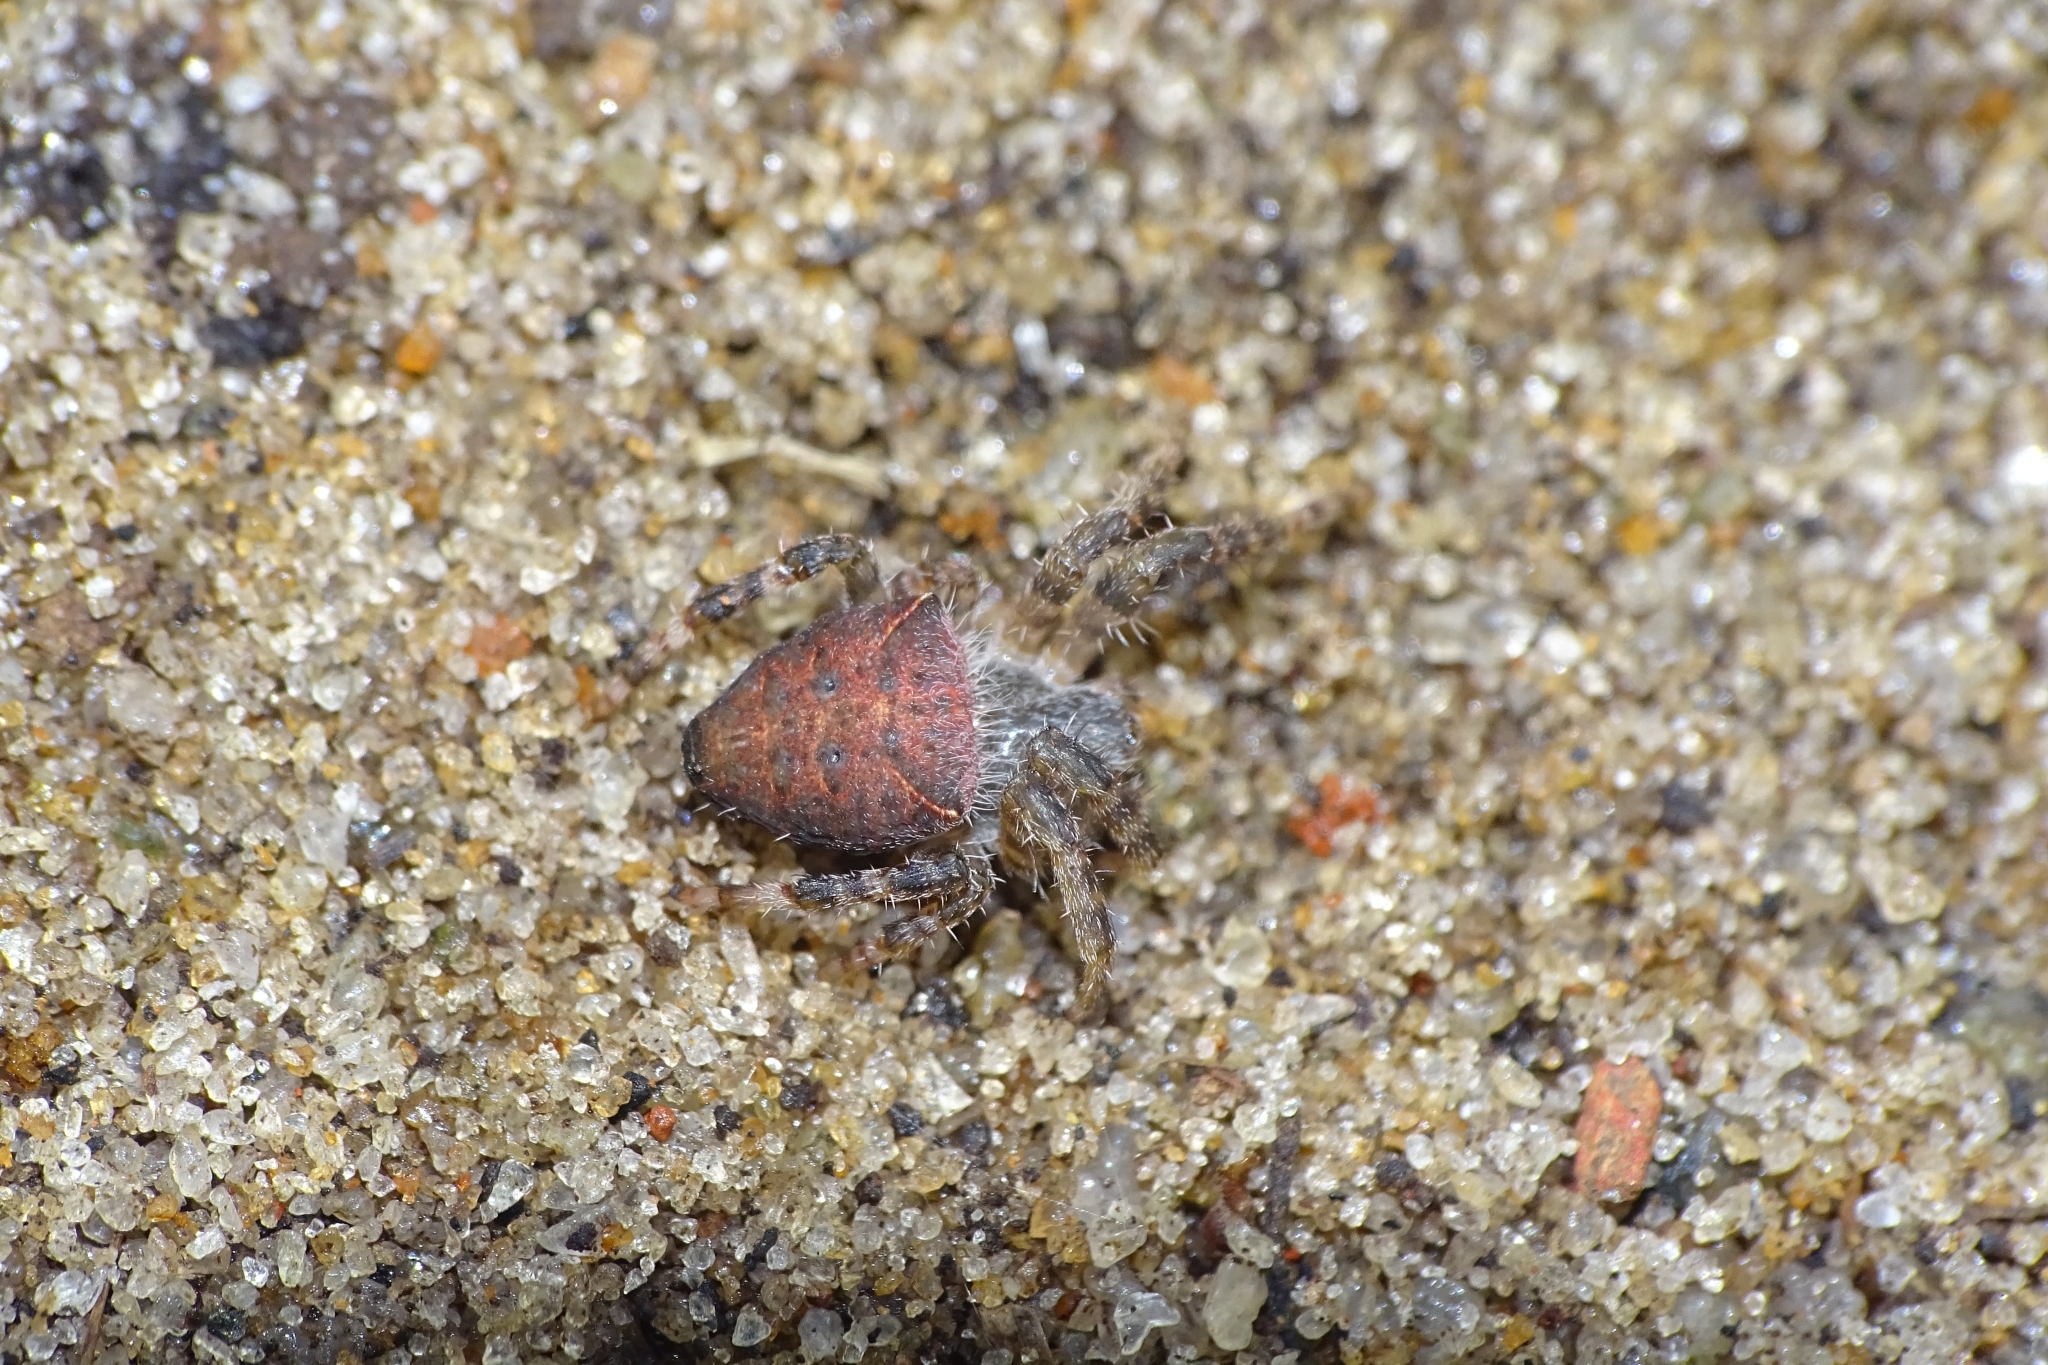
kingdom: Animalia
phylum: Arthropoda
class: Arachnida
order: Araneae
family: Araneidae
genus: Cyrtophora
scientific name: Cyrtophora unicolor
